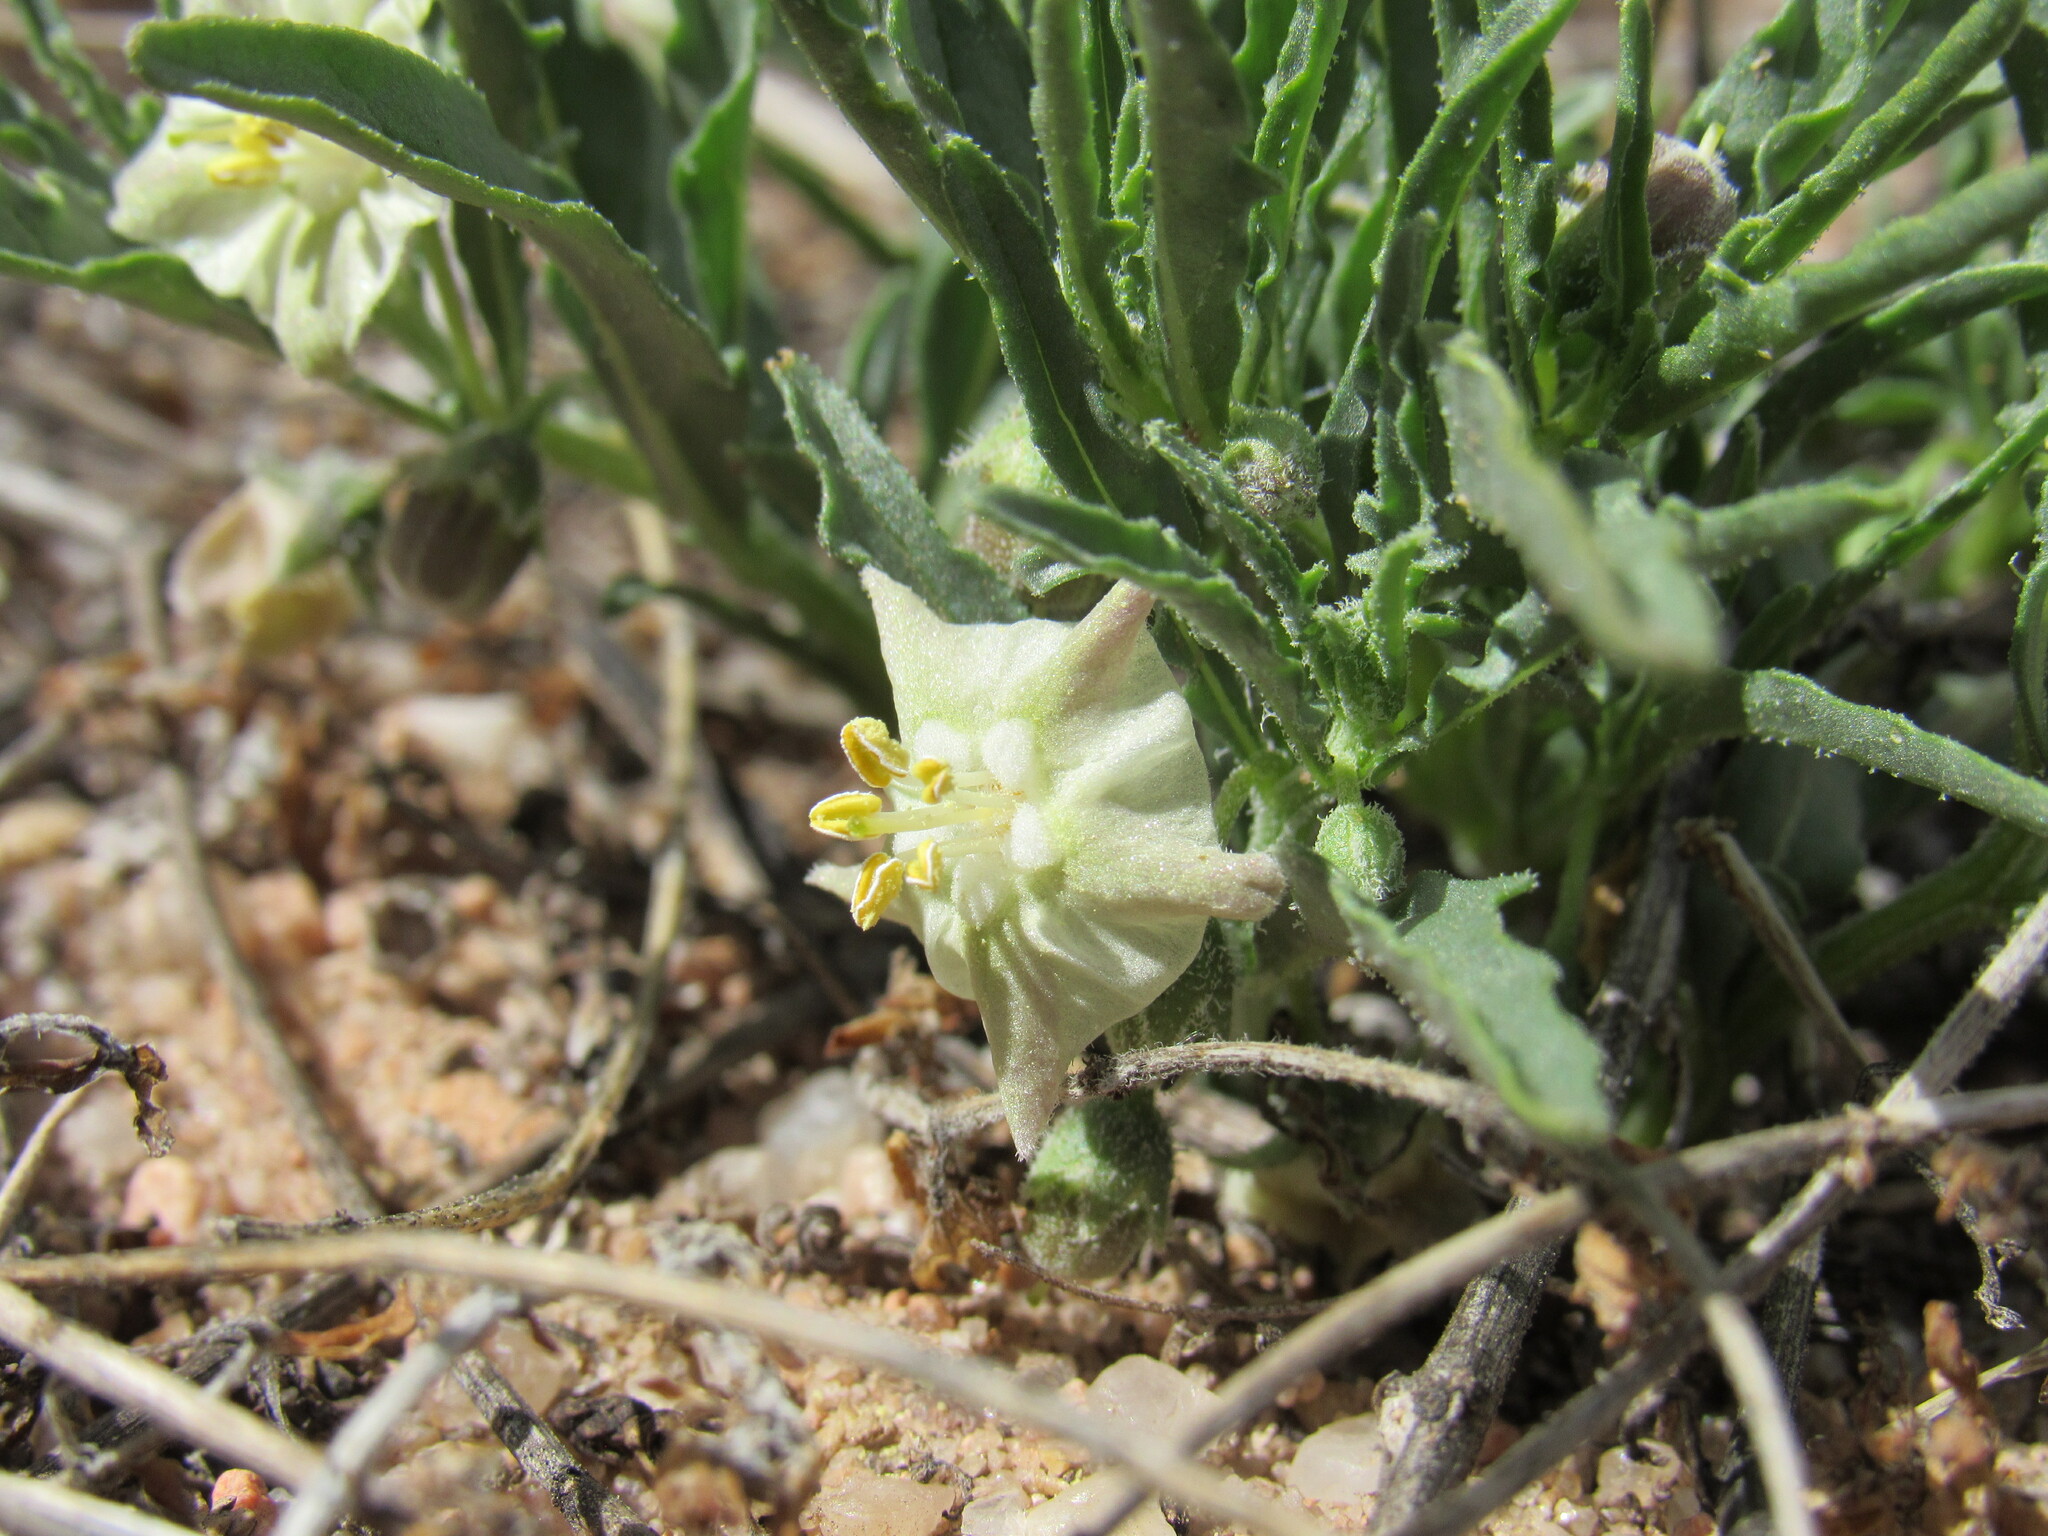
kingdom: Plantae
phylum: Tracheophyta
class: Magnoliopsida
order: Solanales
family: Solanaceae
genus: Chamaesaracha
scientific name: Chamaesaracha coronopus
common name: Smooth chamaesaracha
